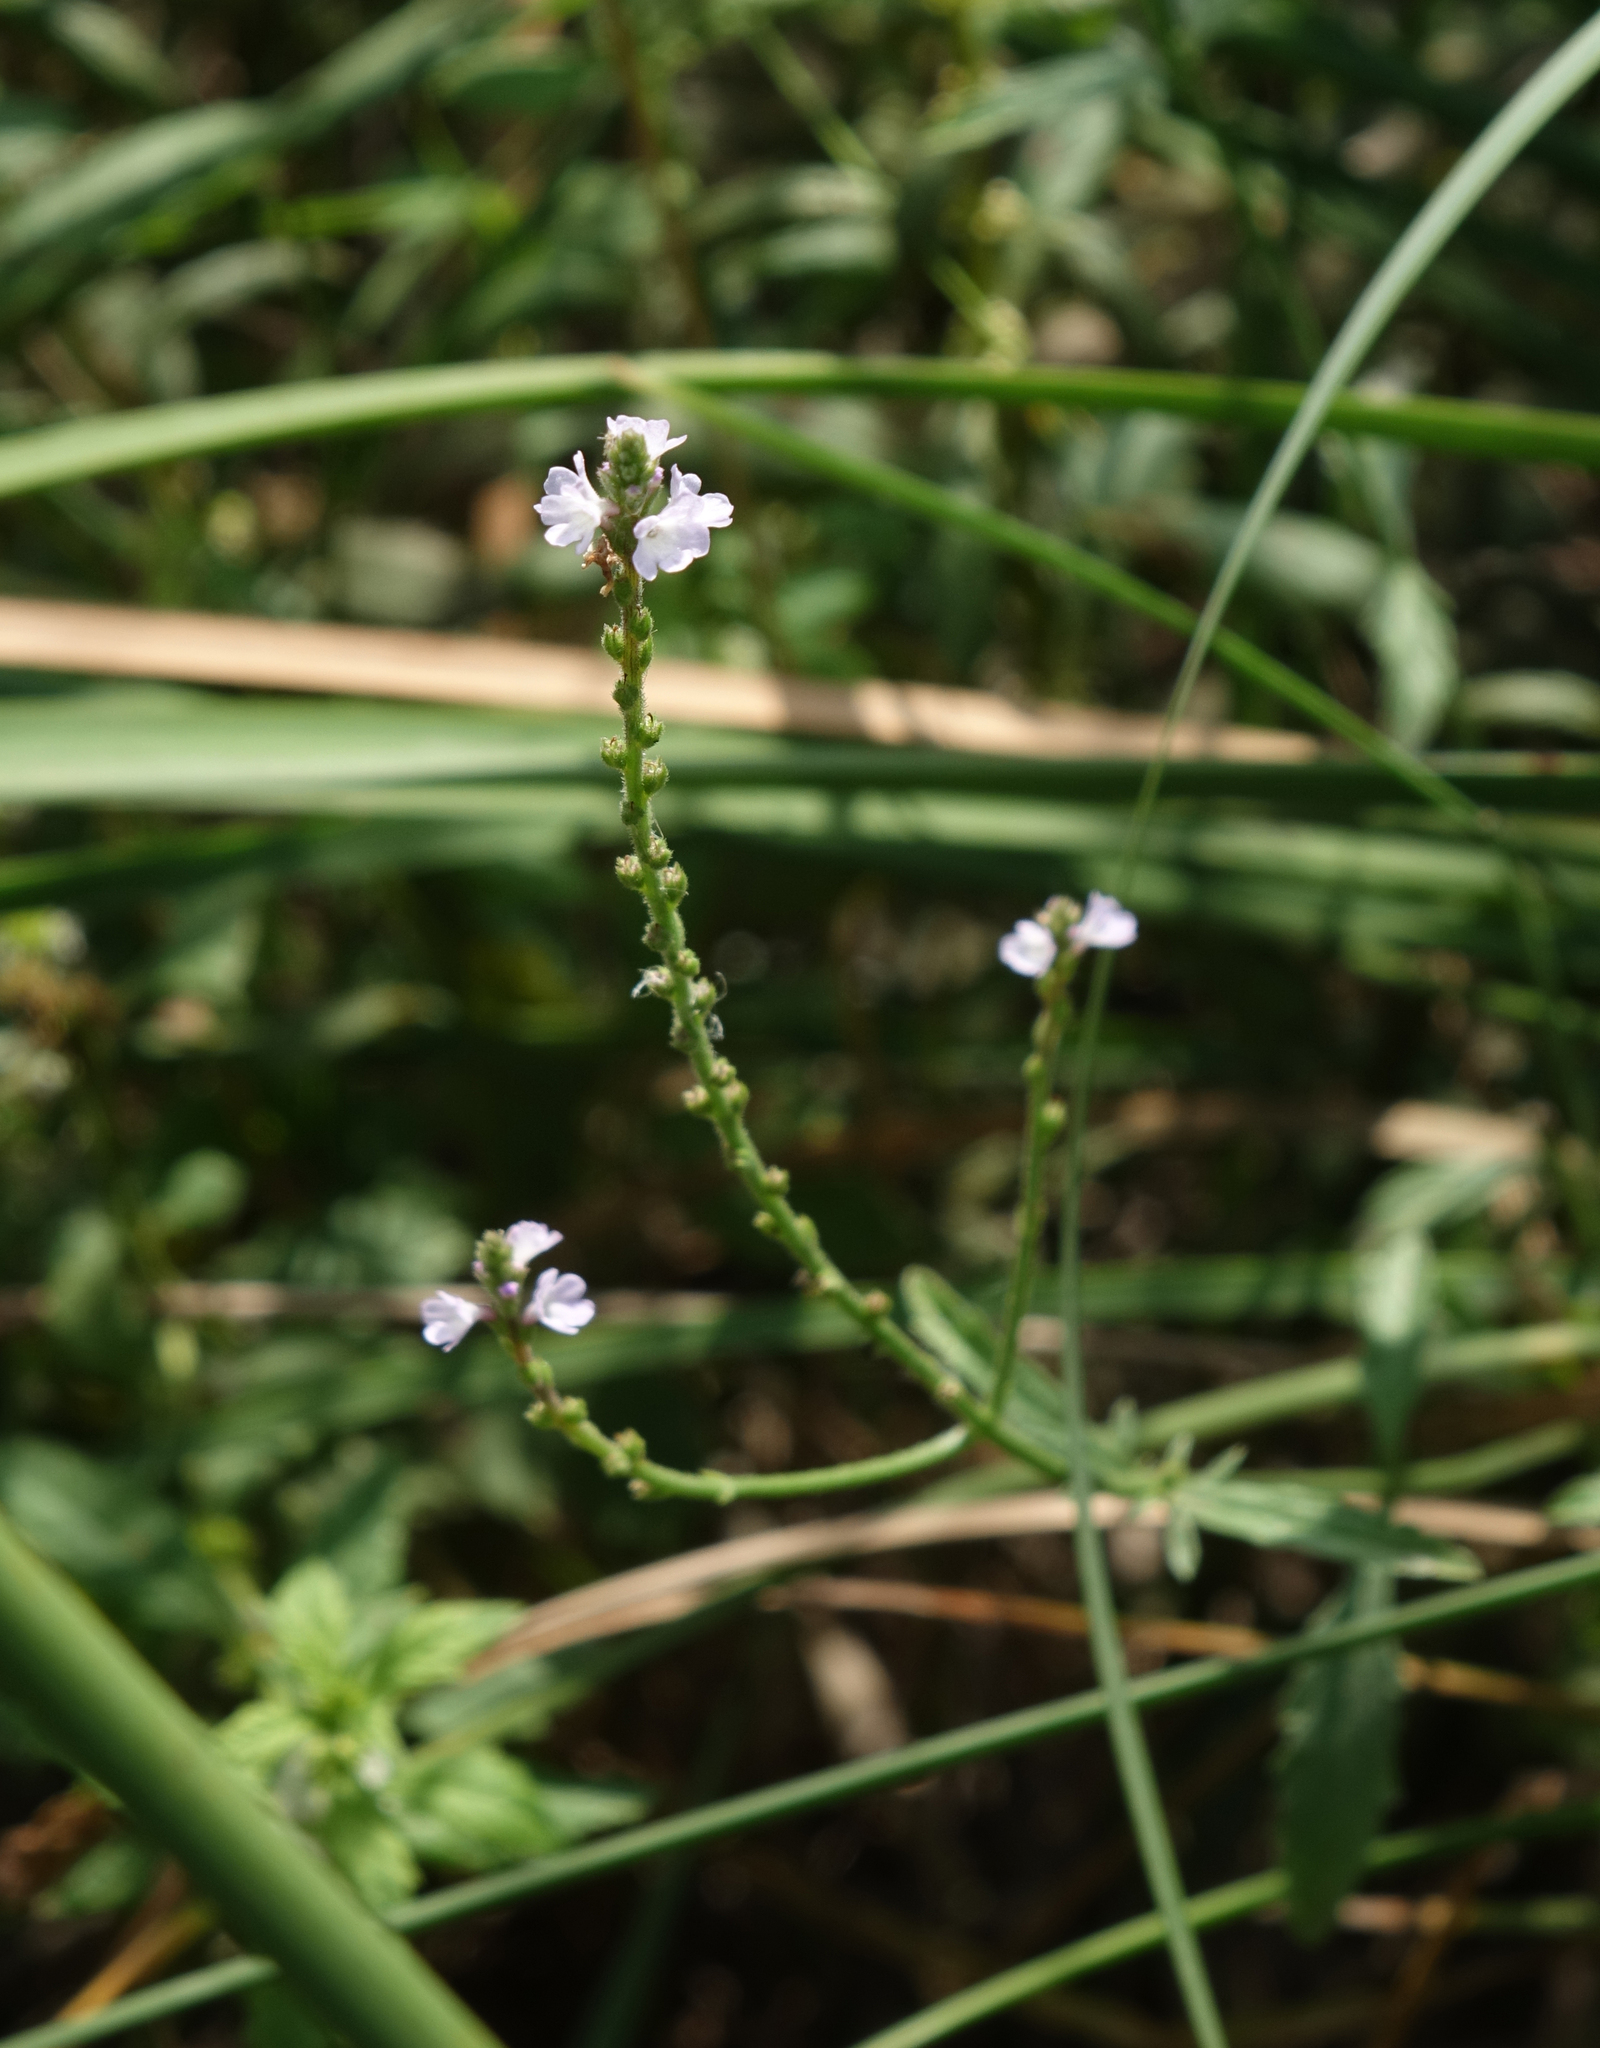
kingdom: Plantae
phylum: Tracheophyta
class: Magnoliopsida
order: Lamiales
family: Verbenaceae
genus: Verbena
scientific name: Verbena officinalis
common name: Vervain
